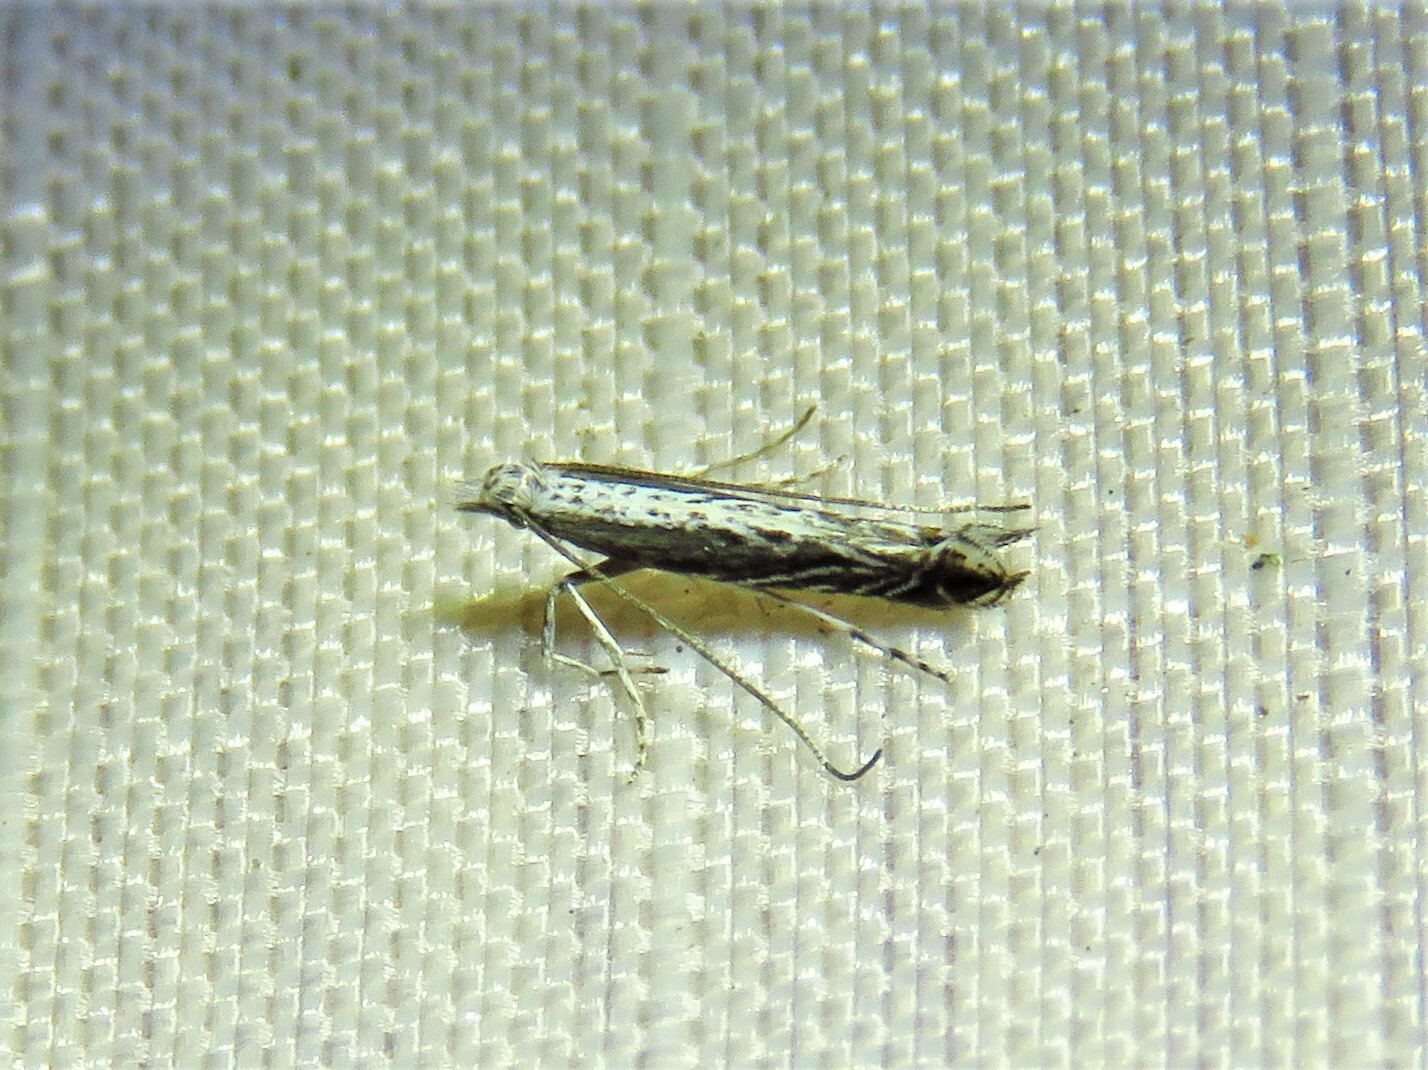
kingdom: Plantae
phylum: Rhodophyta
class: Florideophyceae
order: Gracilariales
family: Gracilariaceae
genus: Gracilaria
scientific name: Gracilaria
